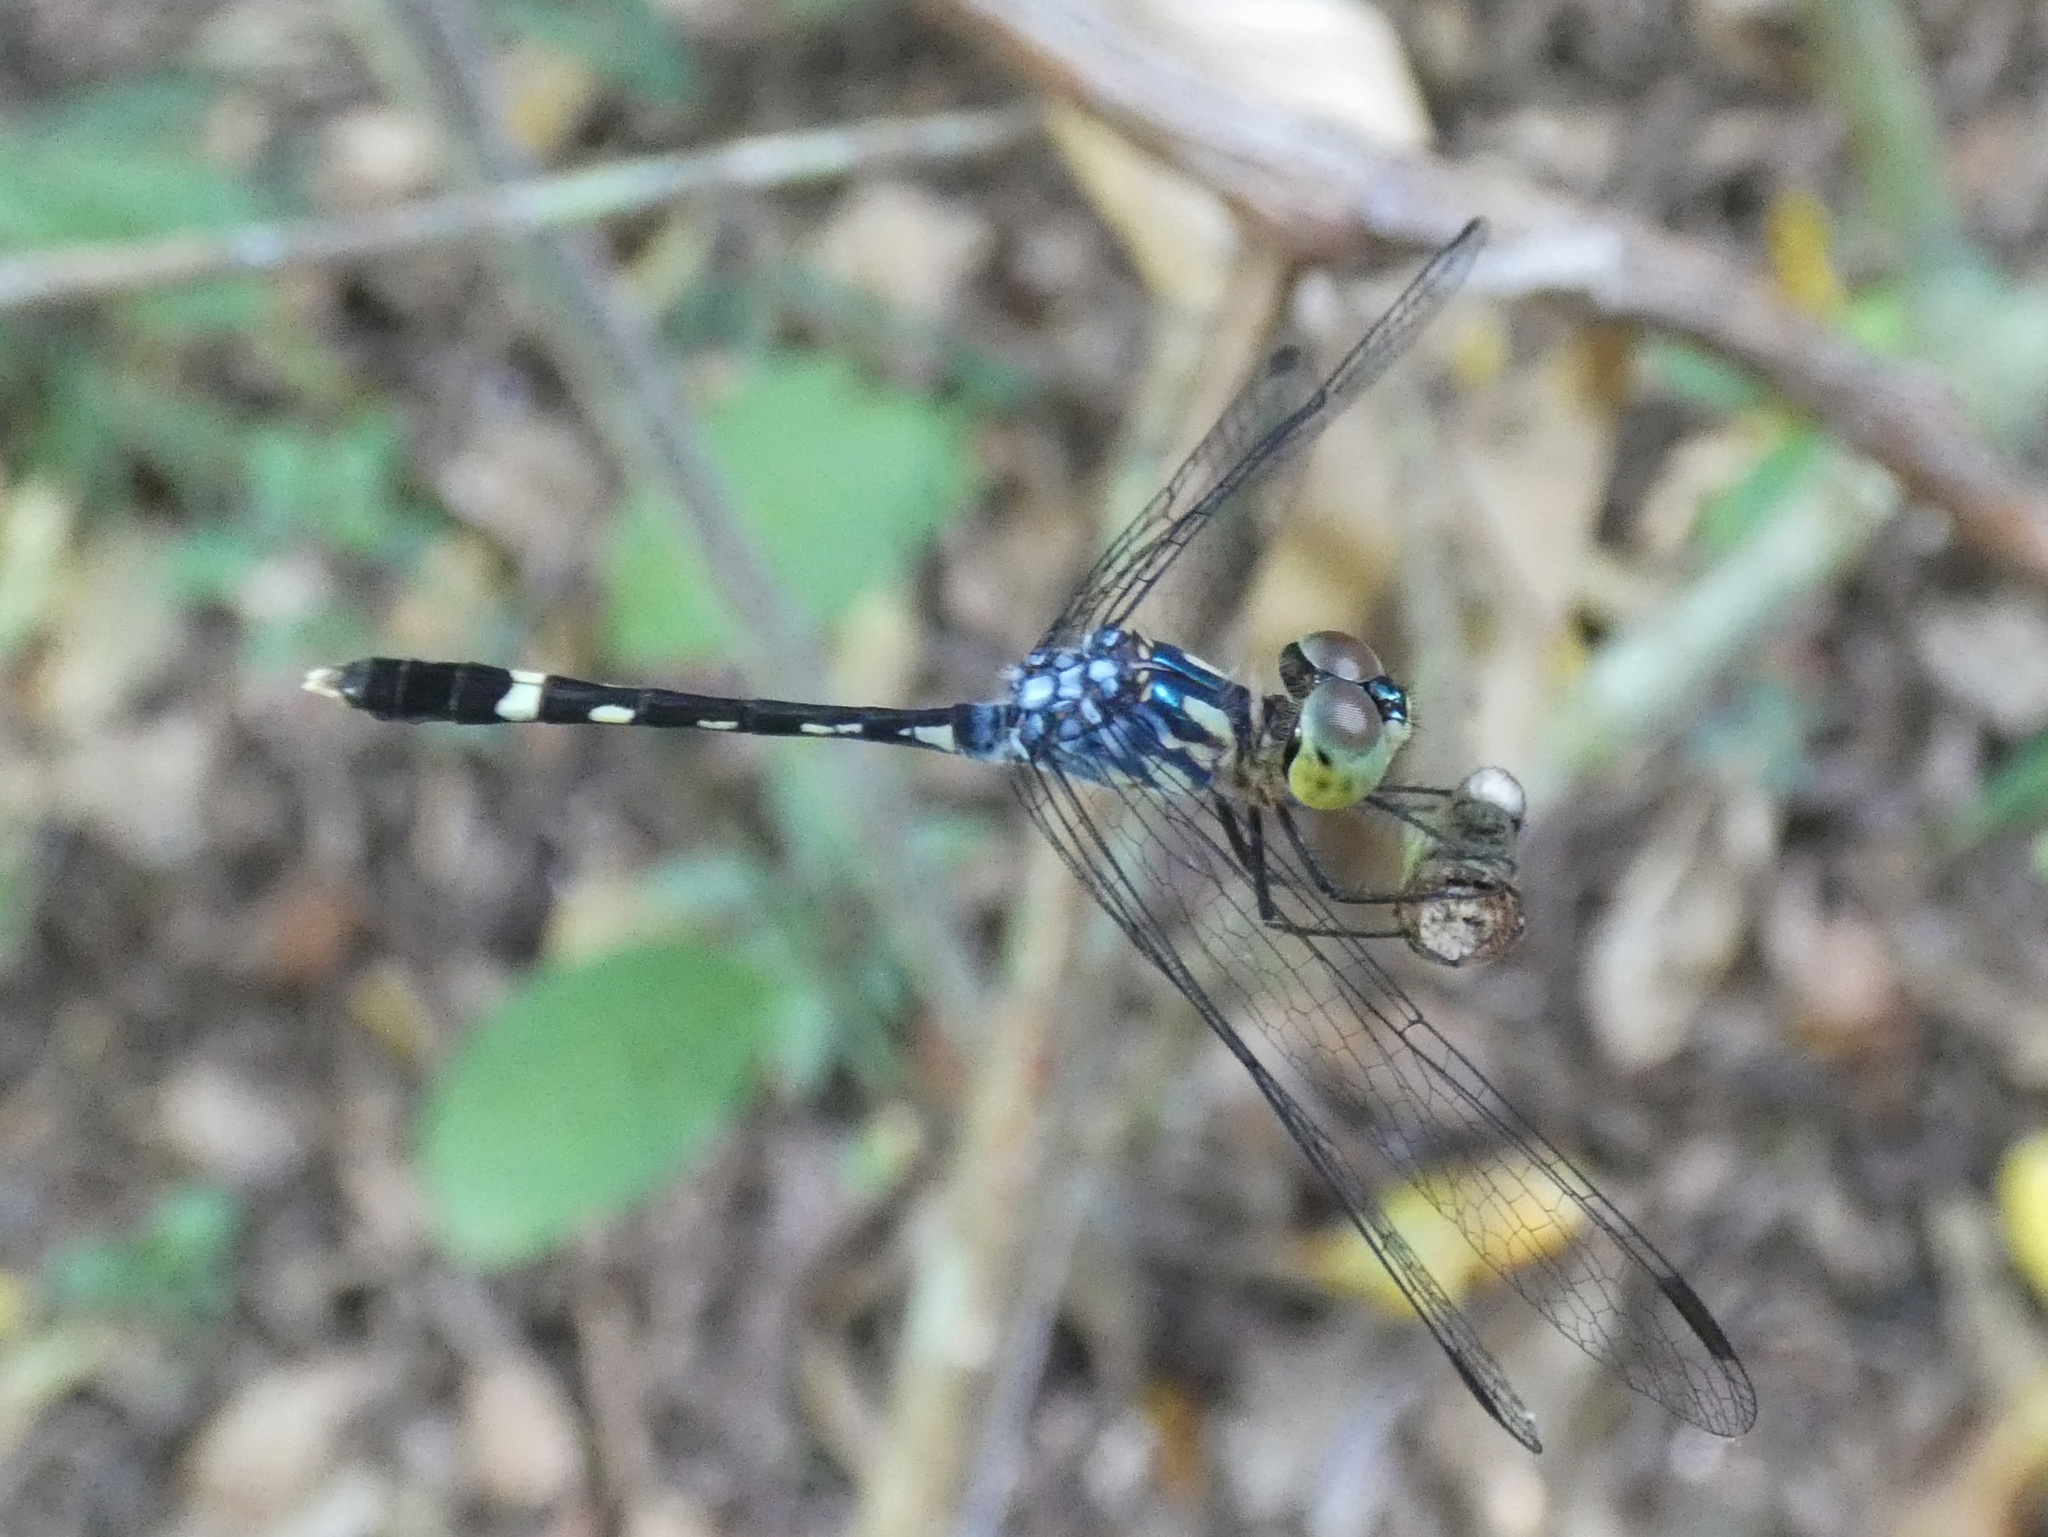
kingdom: Animalia
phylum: Arthropoda
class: Insecta
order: Odonata
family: Libellulidae
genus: Micrathyria
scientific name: Micrathyria tibialis
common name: Pale-footed dasher
